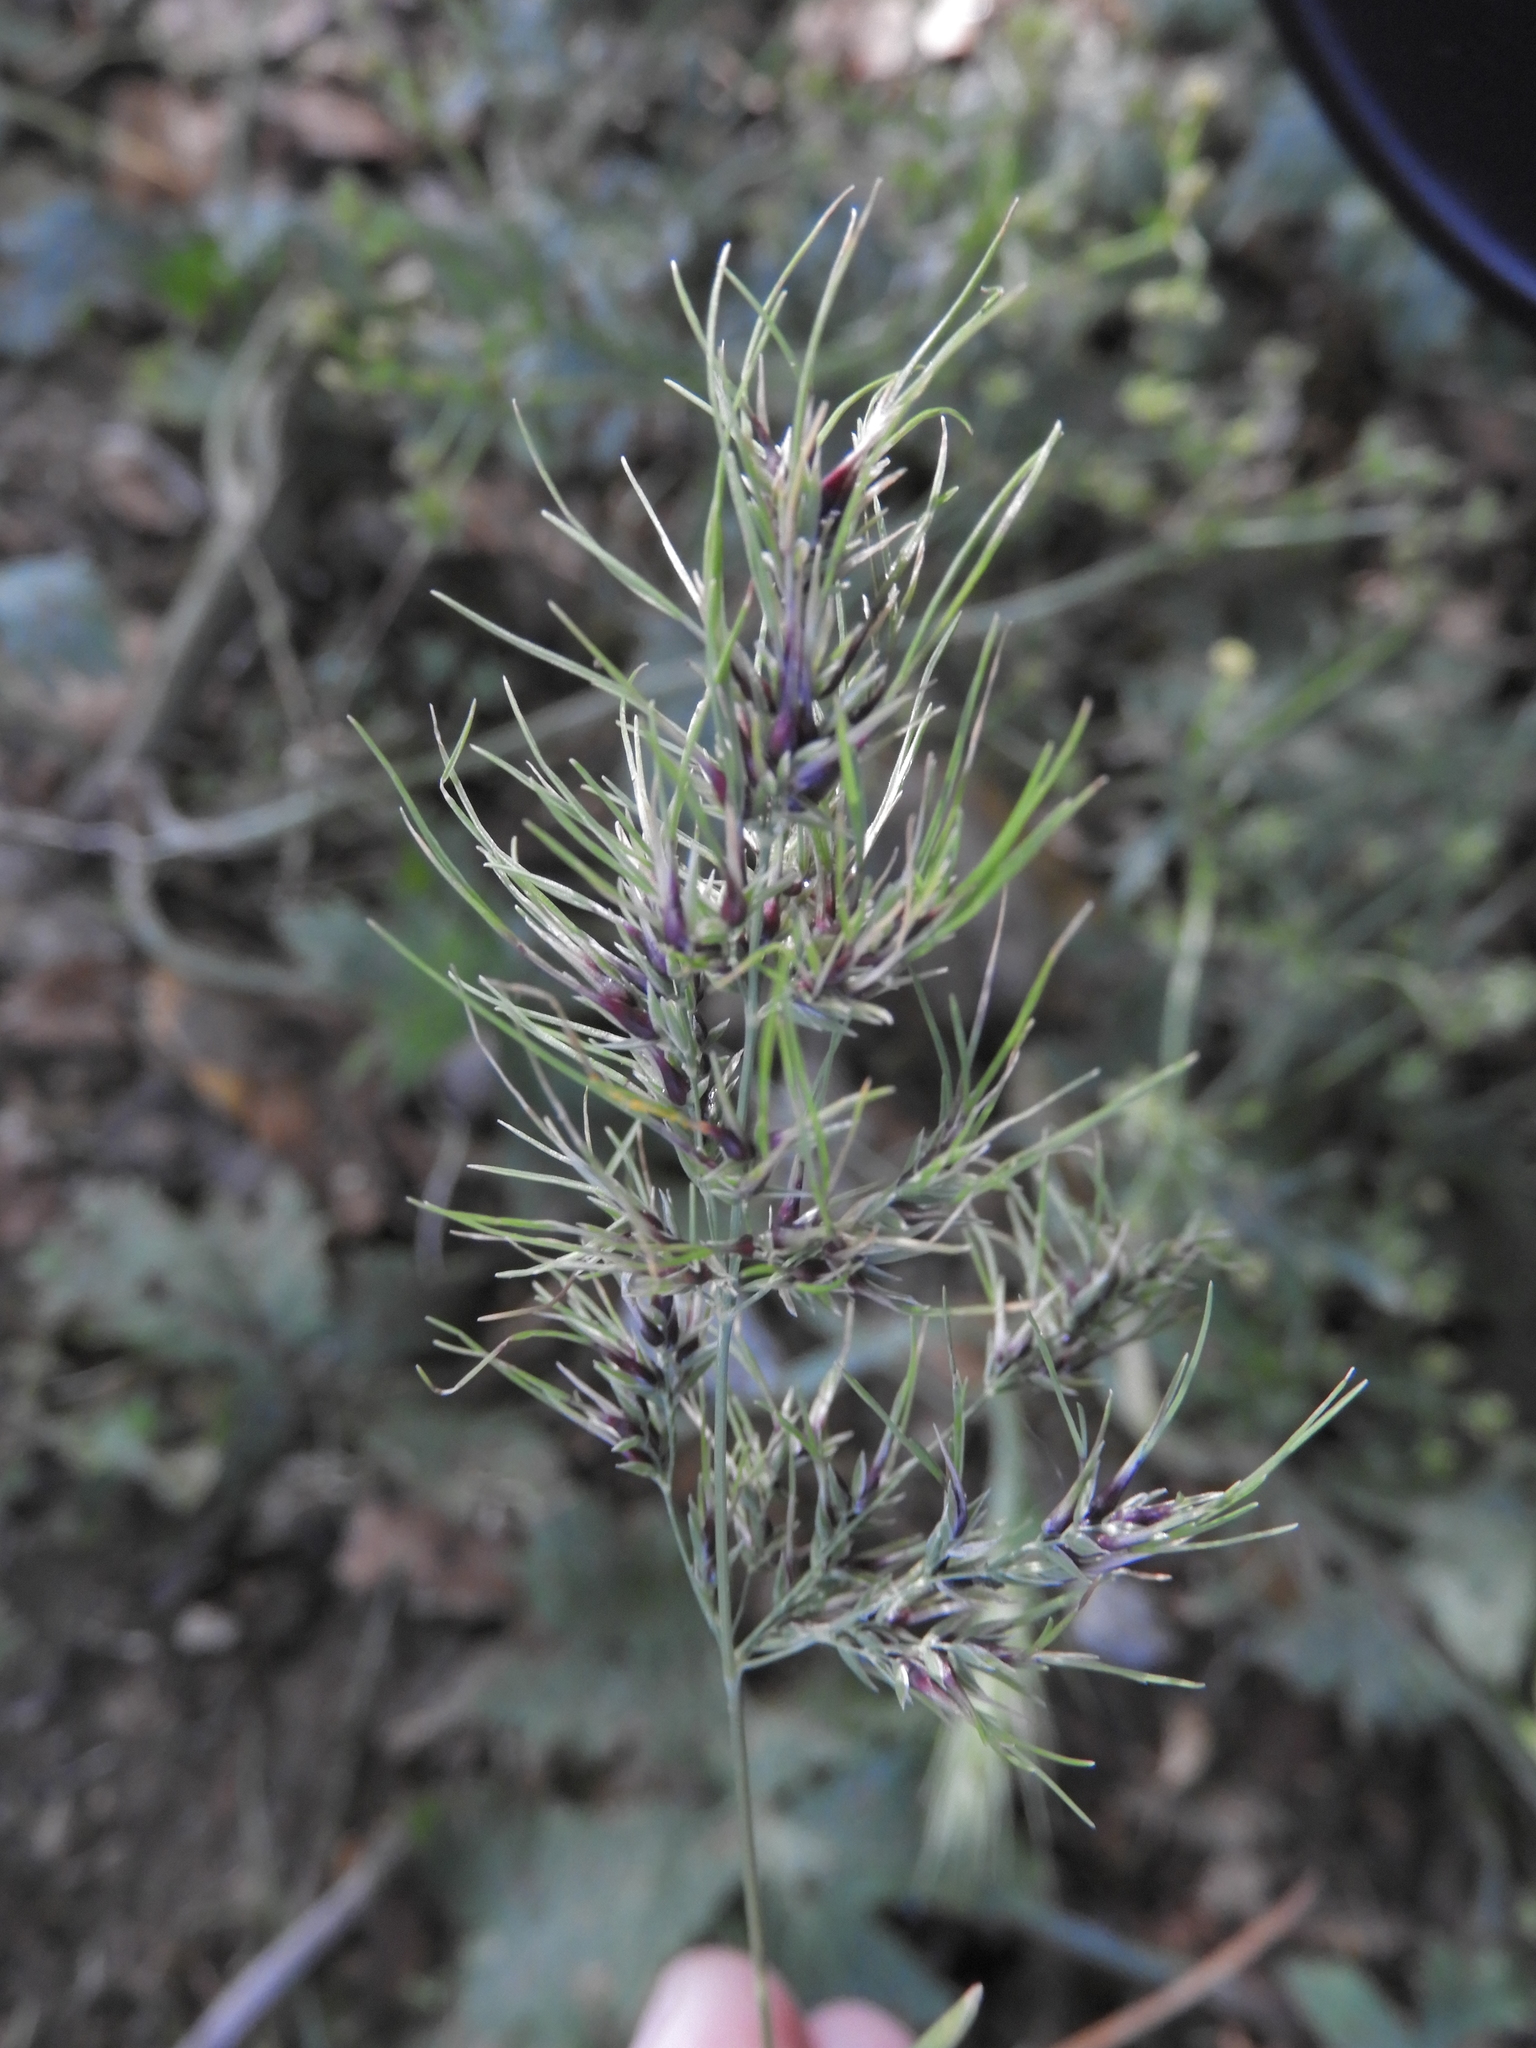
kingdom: Plantae
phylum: Tracheophyta
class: Liliopsida
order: Poales
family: Poaceae
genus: Poa
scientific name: Poa bulbosa
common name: Bulbous bluegrass
